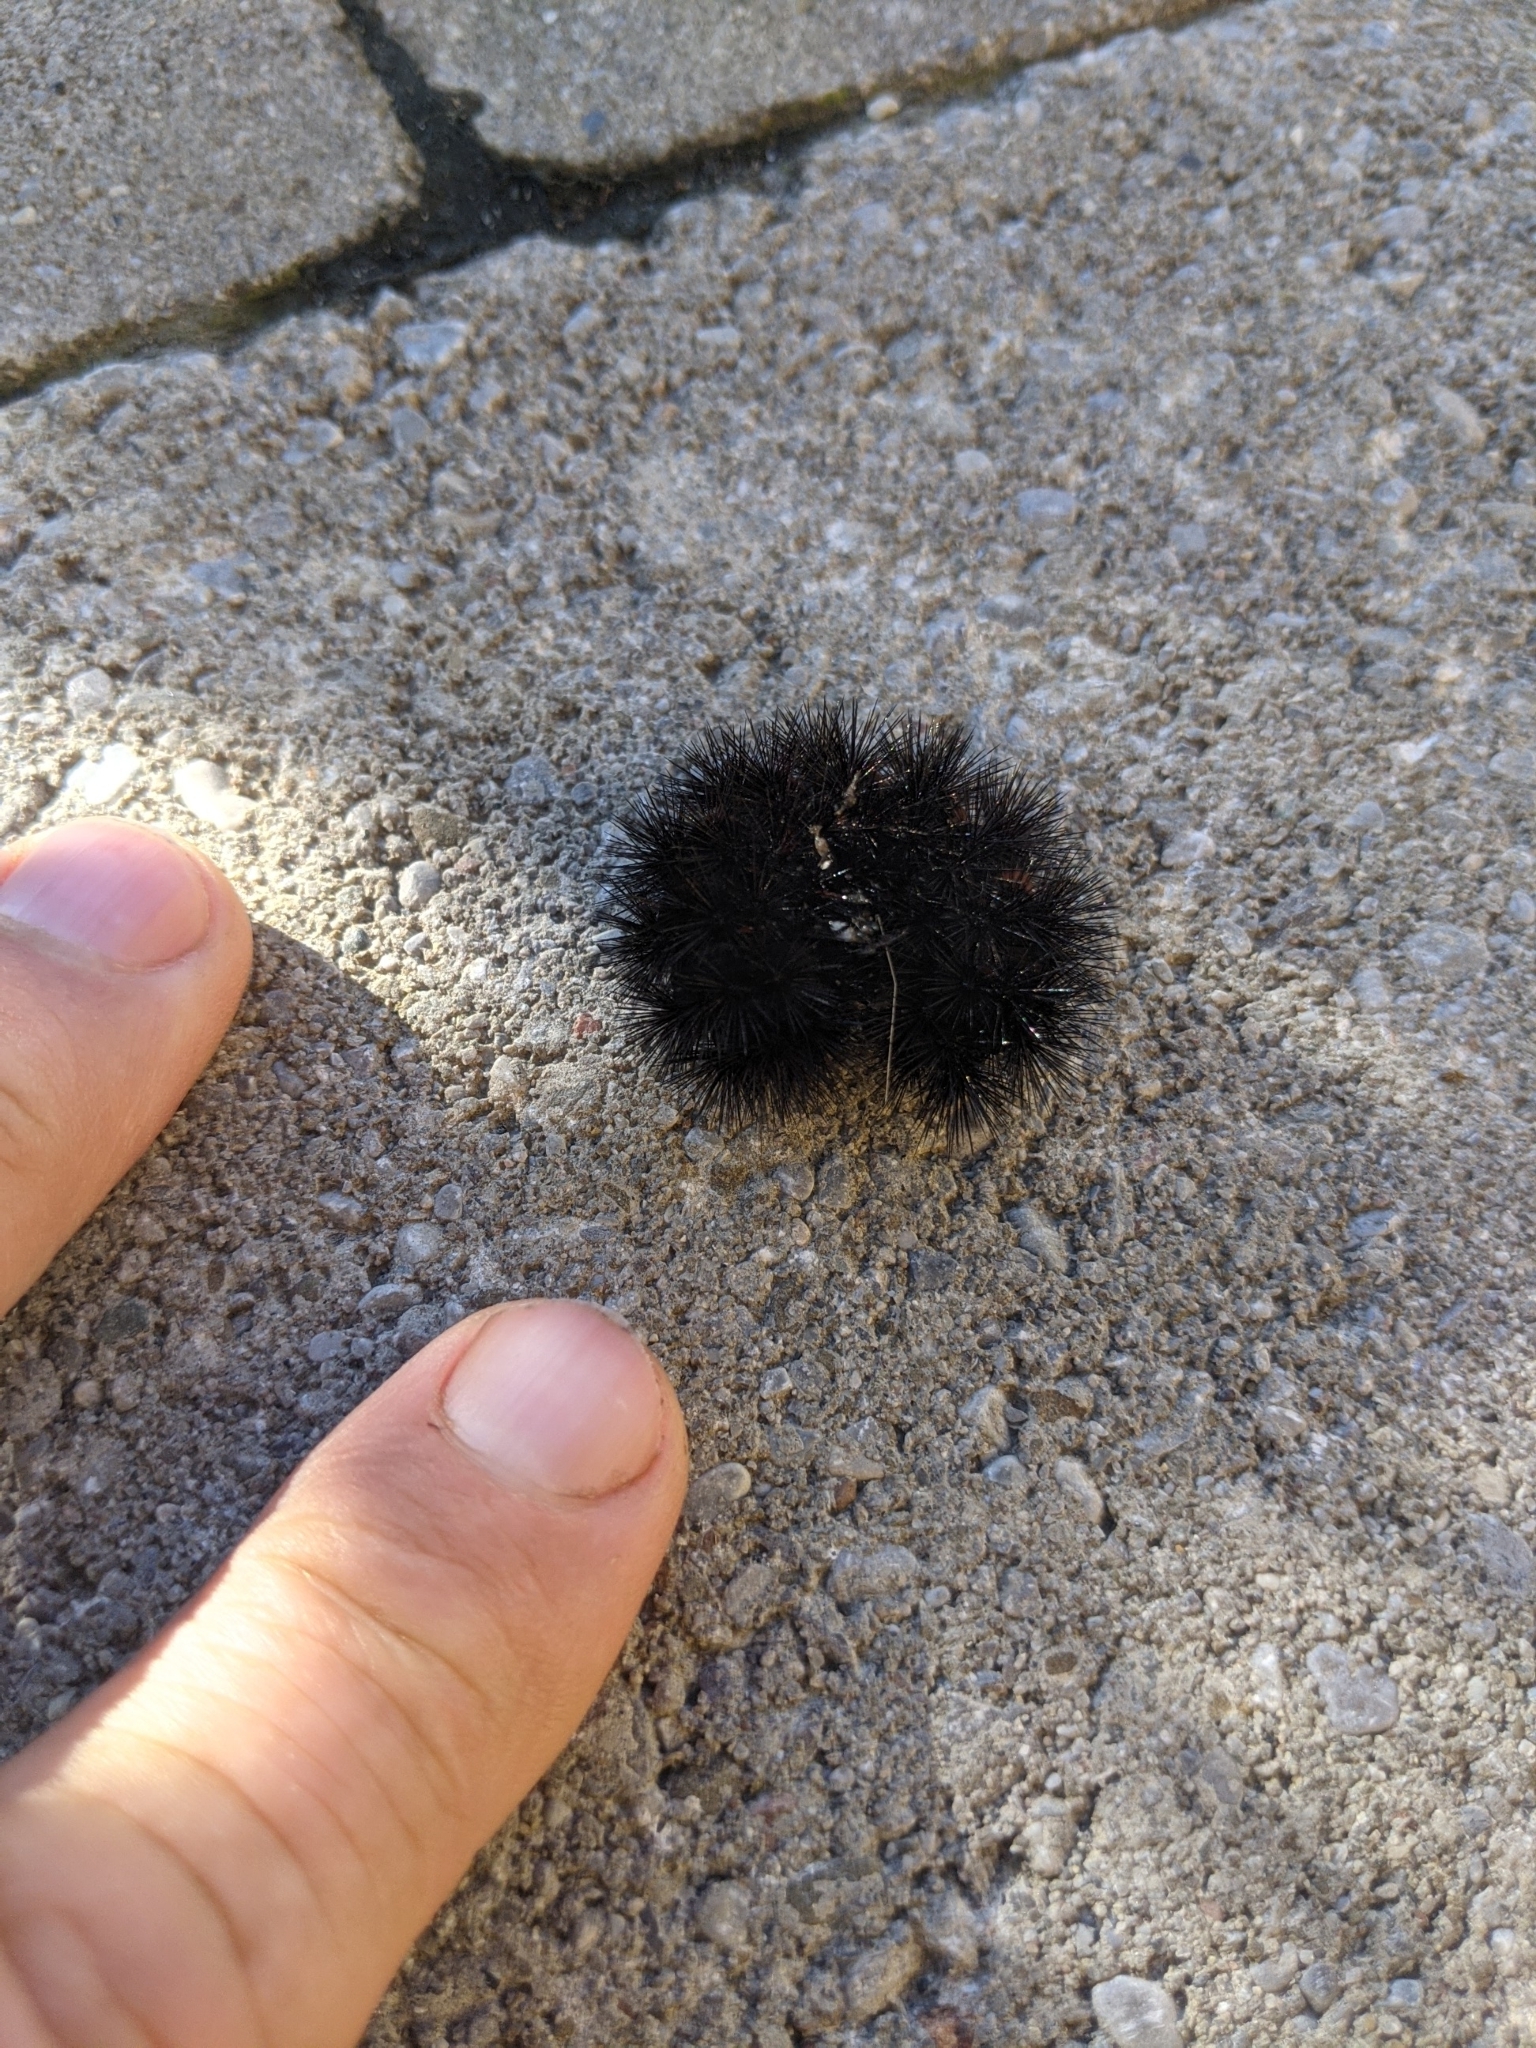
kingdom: Animalia
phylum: Arthropoda
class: Insecta
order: Lepidoptera
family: Erebidae
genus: Hypercompe
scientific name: Hypercompe scribonia
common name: Giant leopard moth
